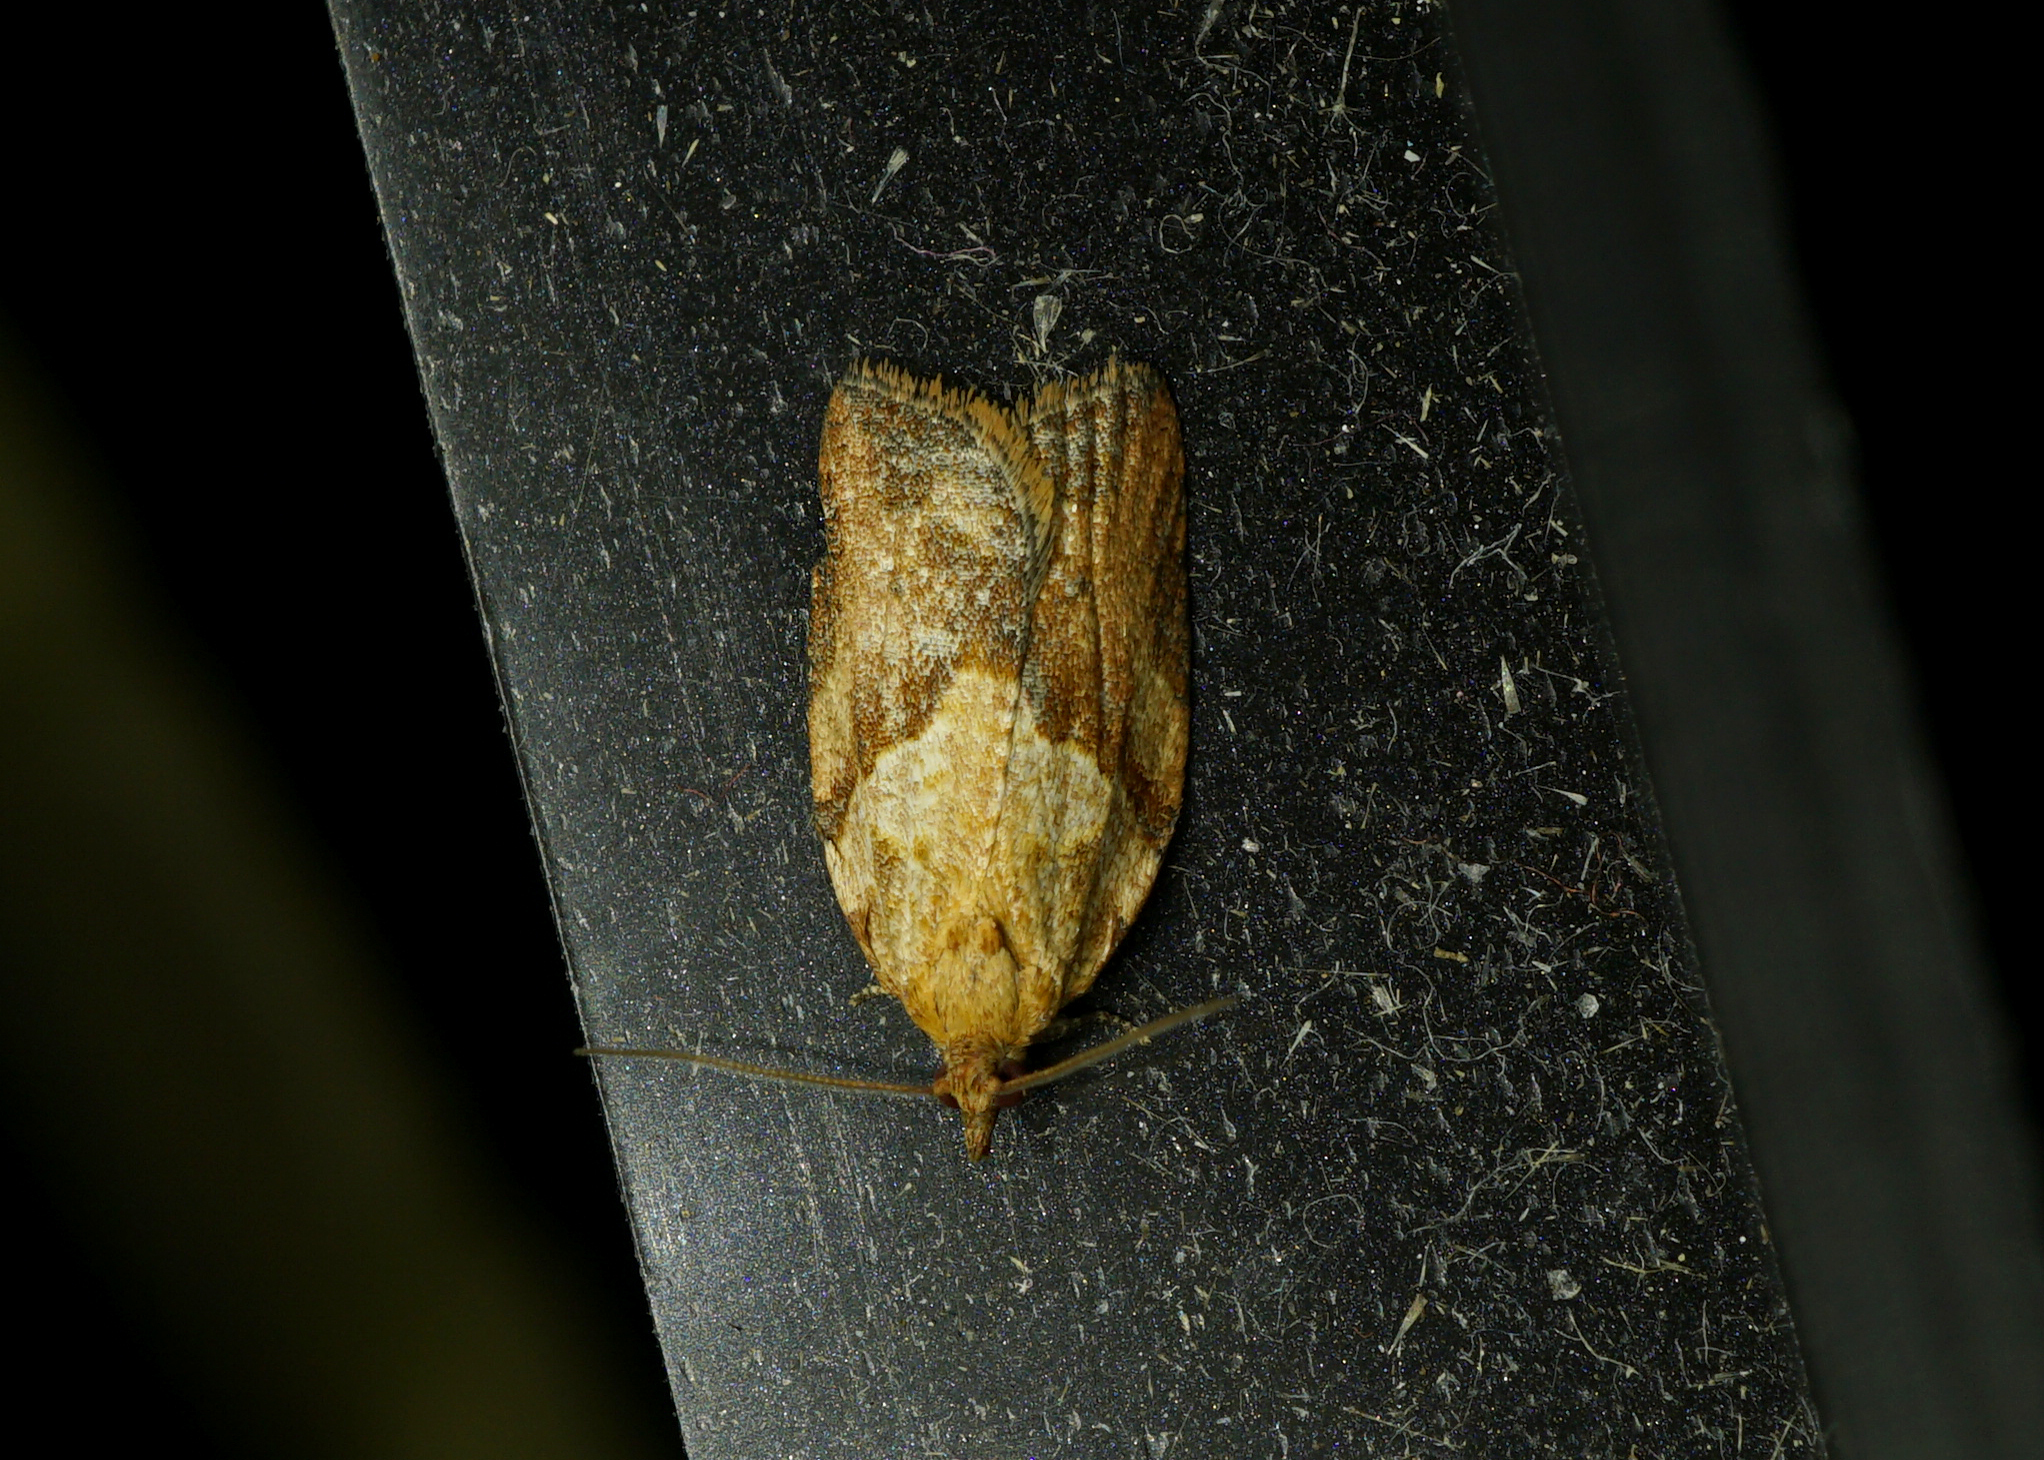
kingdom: Animalia
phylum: Arthropoda
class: Insecta
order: Lepidoptera
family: Tortricidae
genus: Epiphyas
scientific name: Epiphyas postvittana
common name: Light brown apple moth
